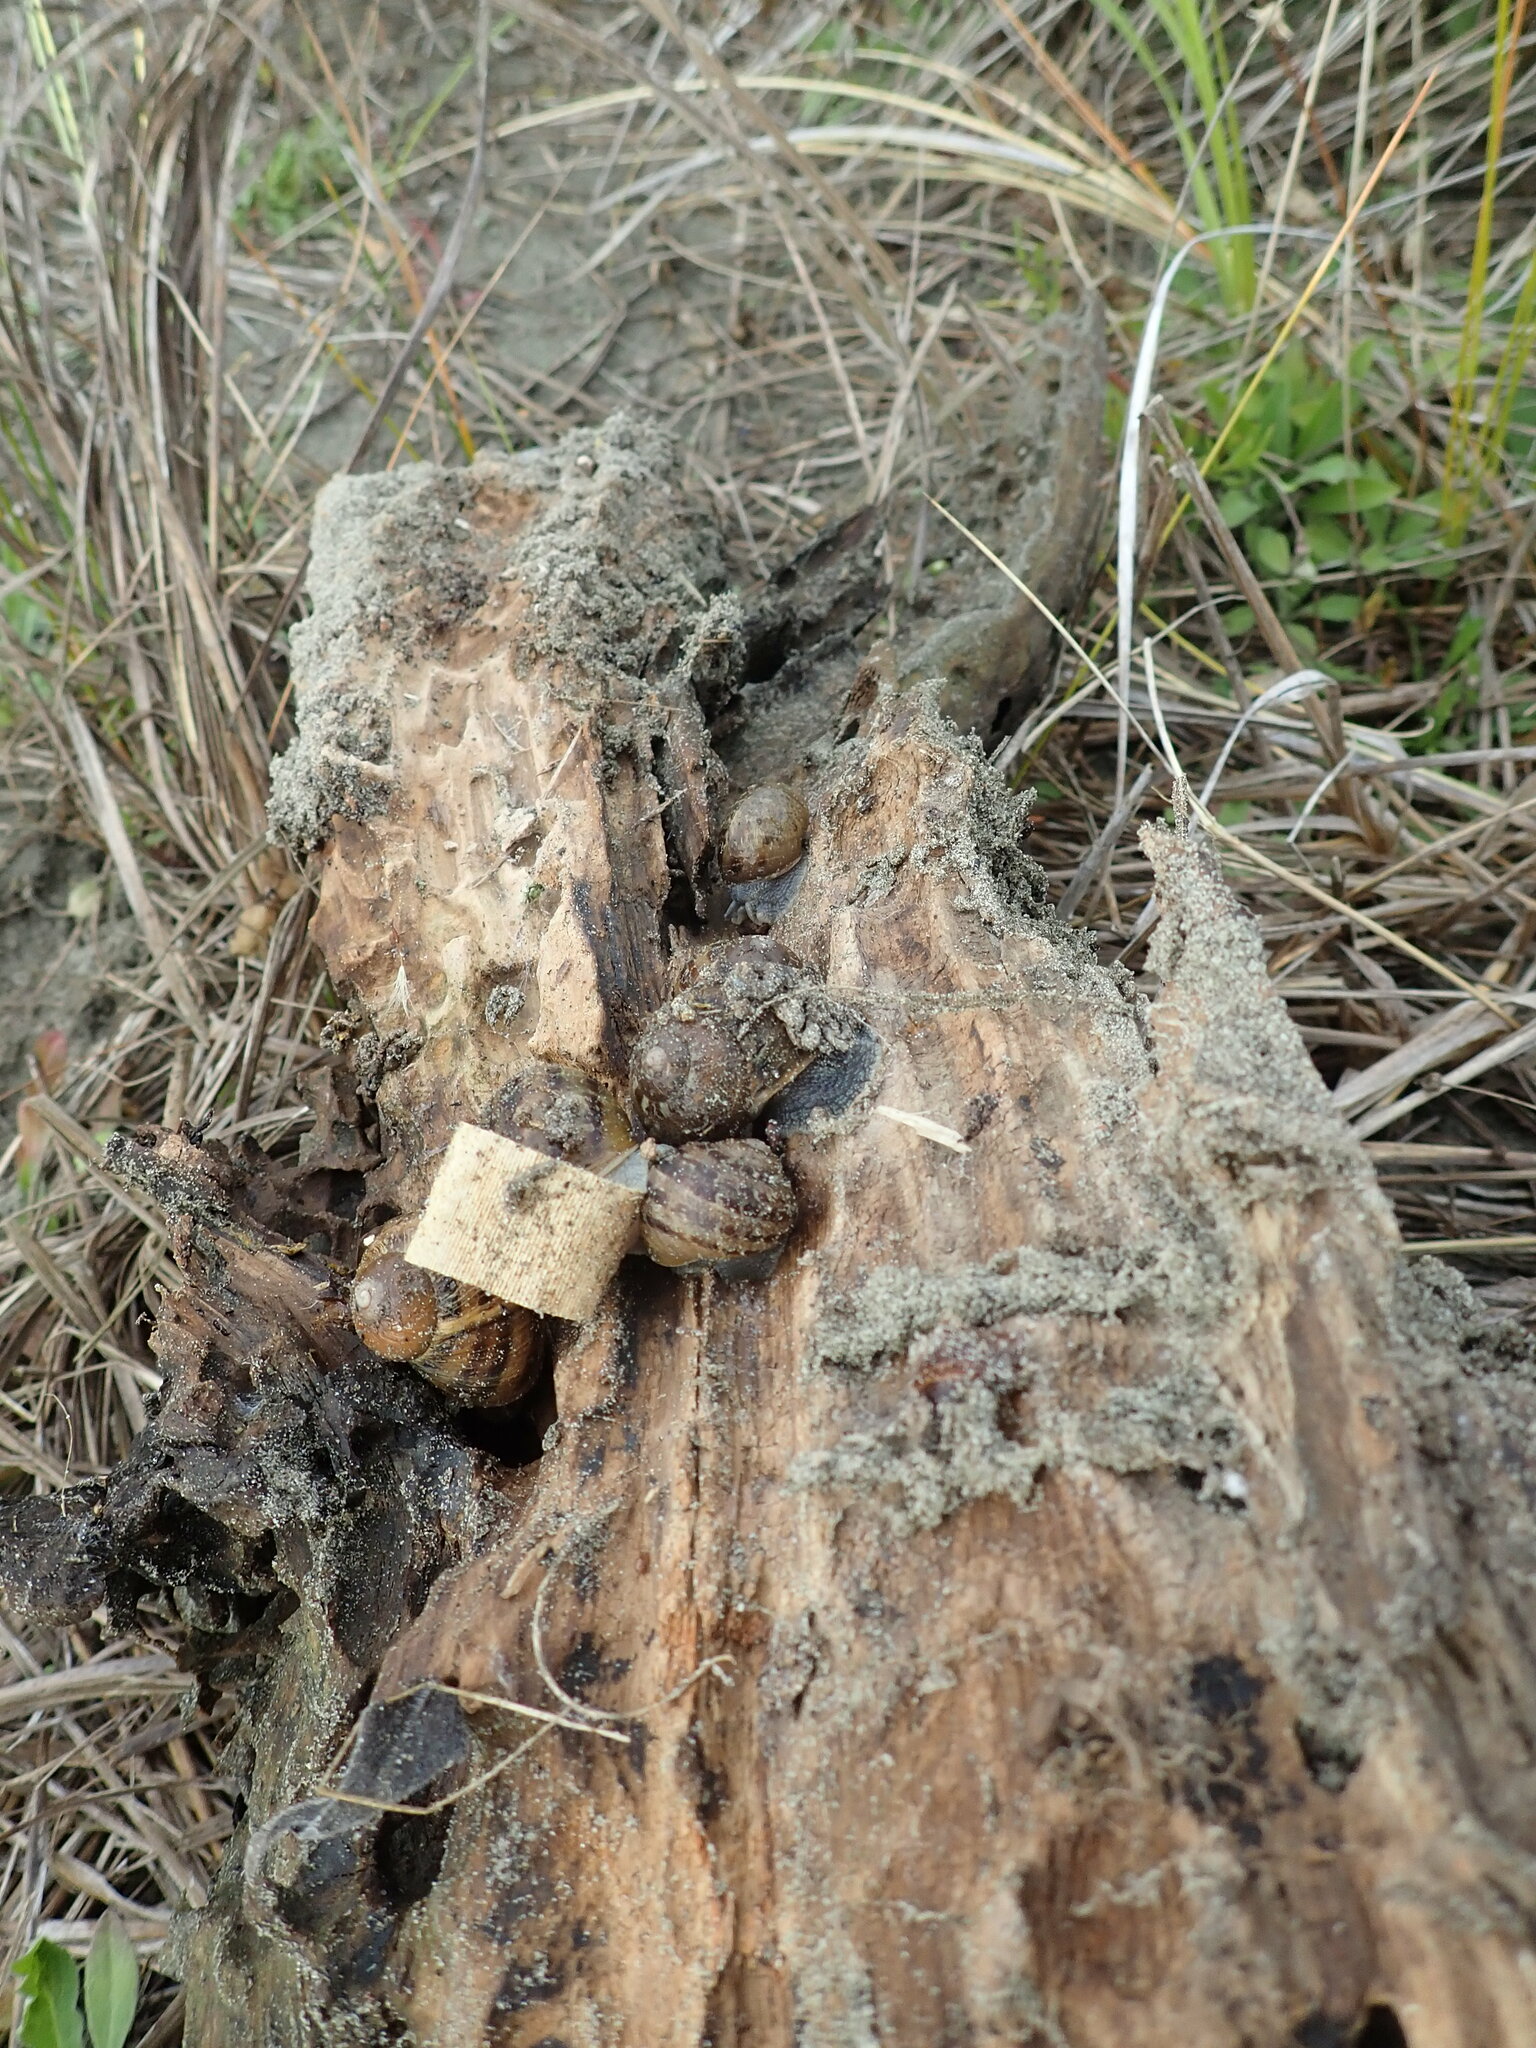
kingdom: Animalia
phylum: Mollusca
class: Gastropoda
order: Stylommatophora
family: Helicidae
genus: Cornu
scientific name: Cornu aspersum
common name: Brown garden snail
